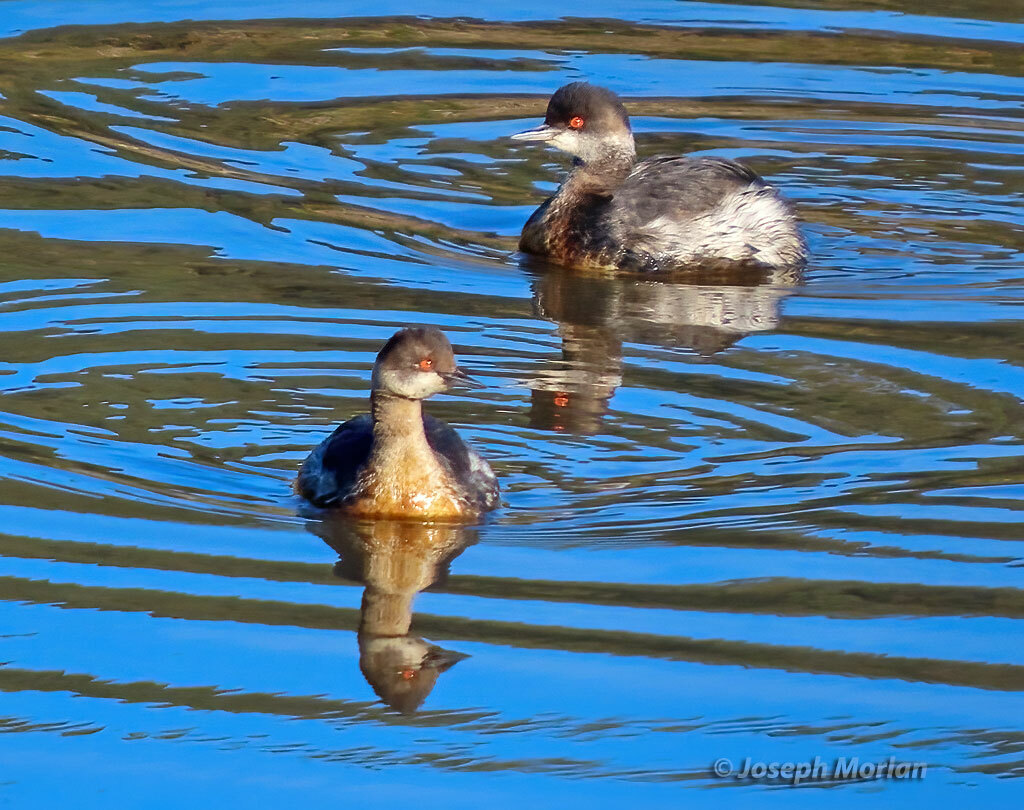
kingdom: Animalia
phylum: Chordata
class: Aves
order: Podicipediformes
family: Podicipedidae
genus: Podiceps
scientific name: Podiceps nigricollis
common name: Black-necked grebe
